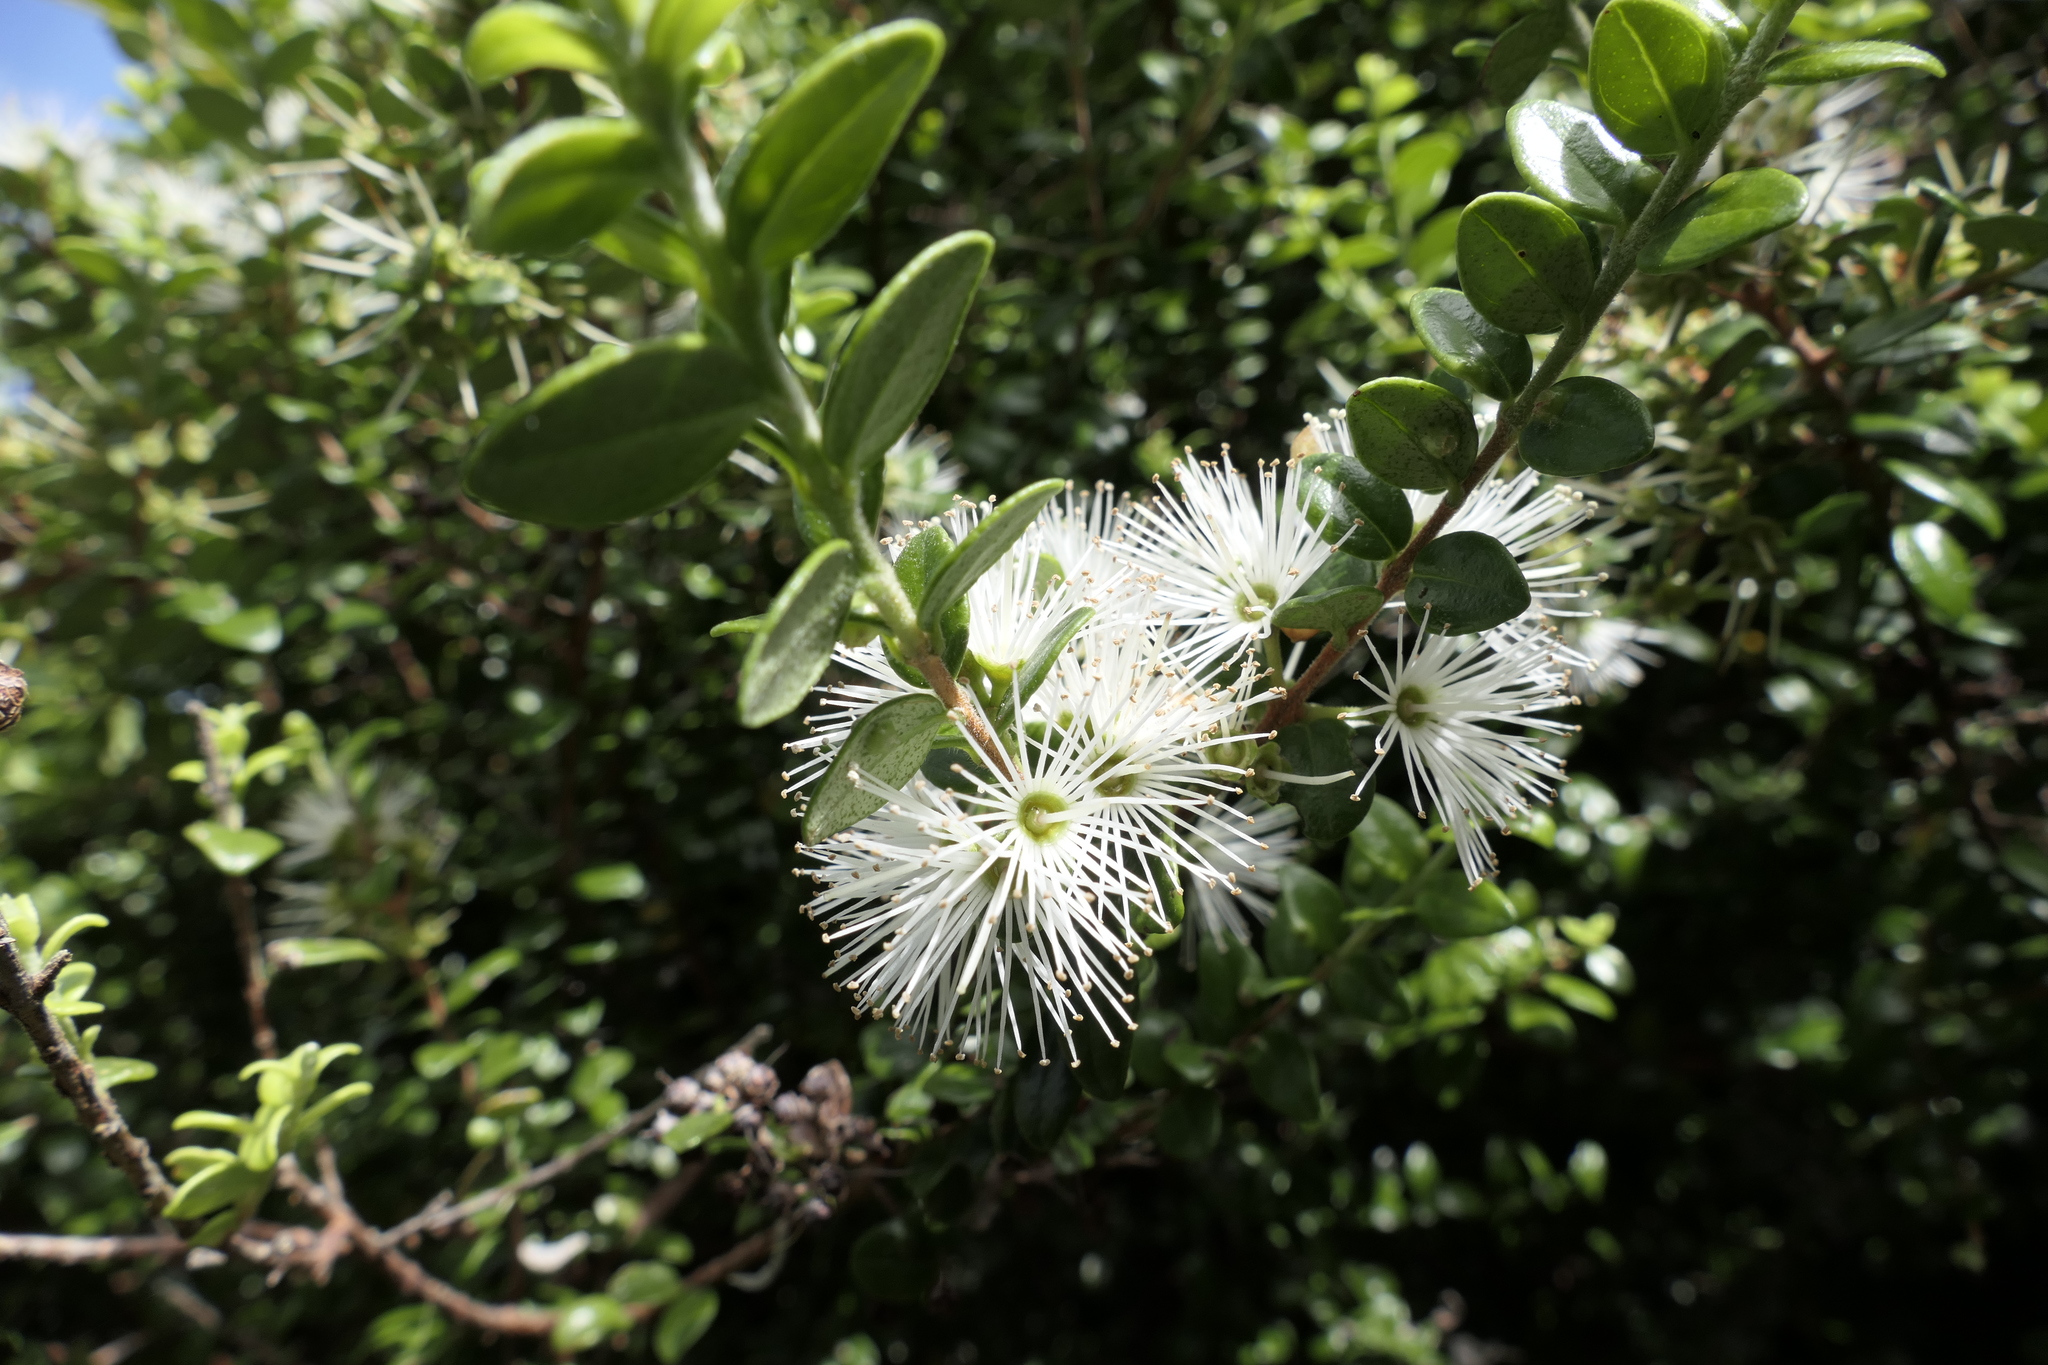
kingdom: Plantae
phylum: Tracheophyta
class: Magnoliopsida
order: Myrtales
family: Myrtaceae
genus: Metrosideros
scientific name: Metrosideros perforata
